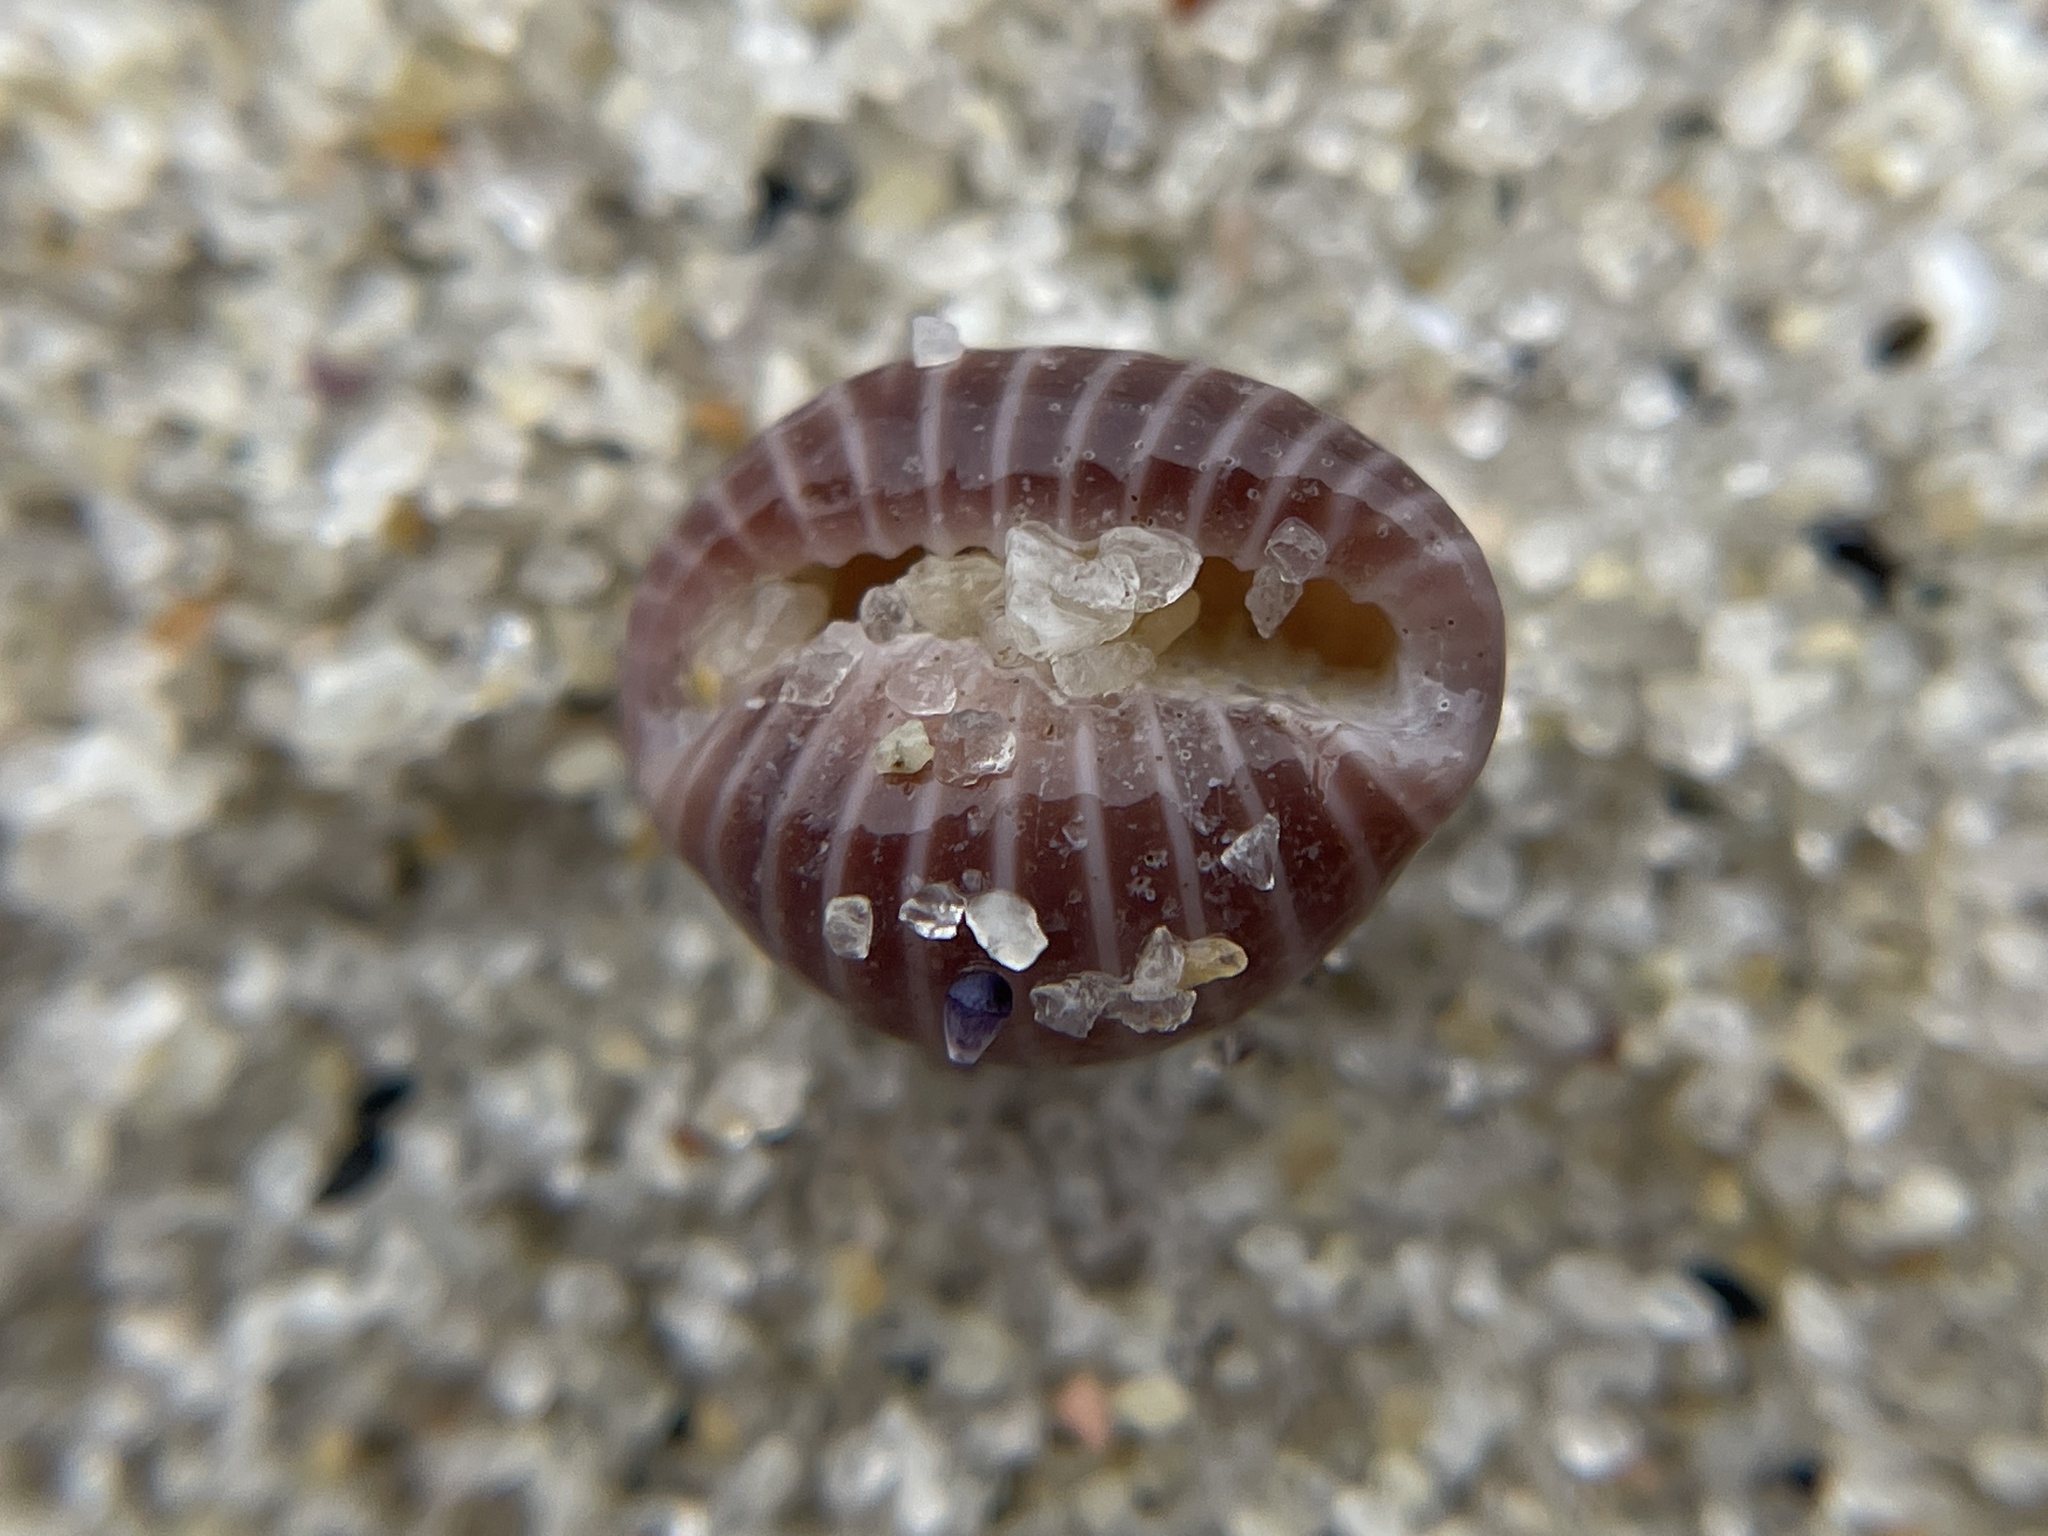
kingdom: Animalia
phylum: Mollusca
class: Gastropoda
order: Littorinimorpha
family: Triviidae
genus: Pseudopusula
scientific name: Pseudopusula californiana
